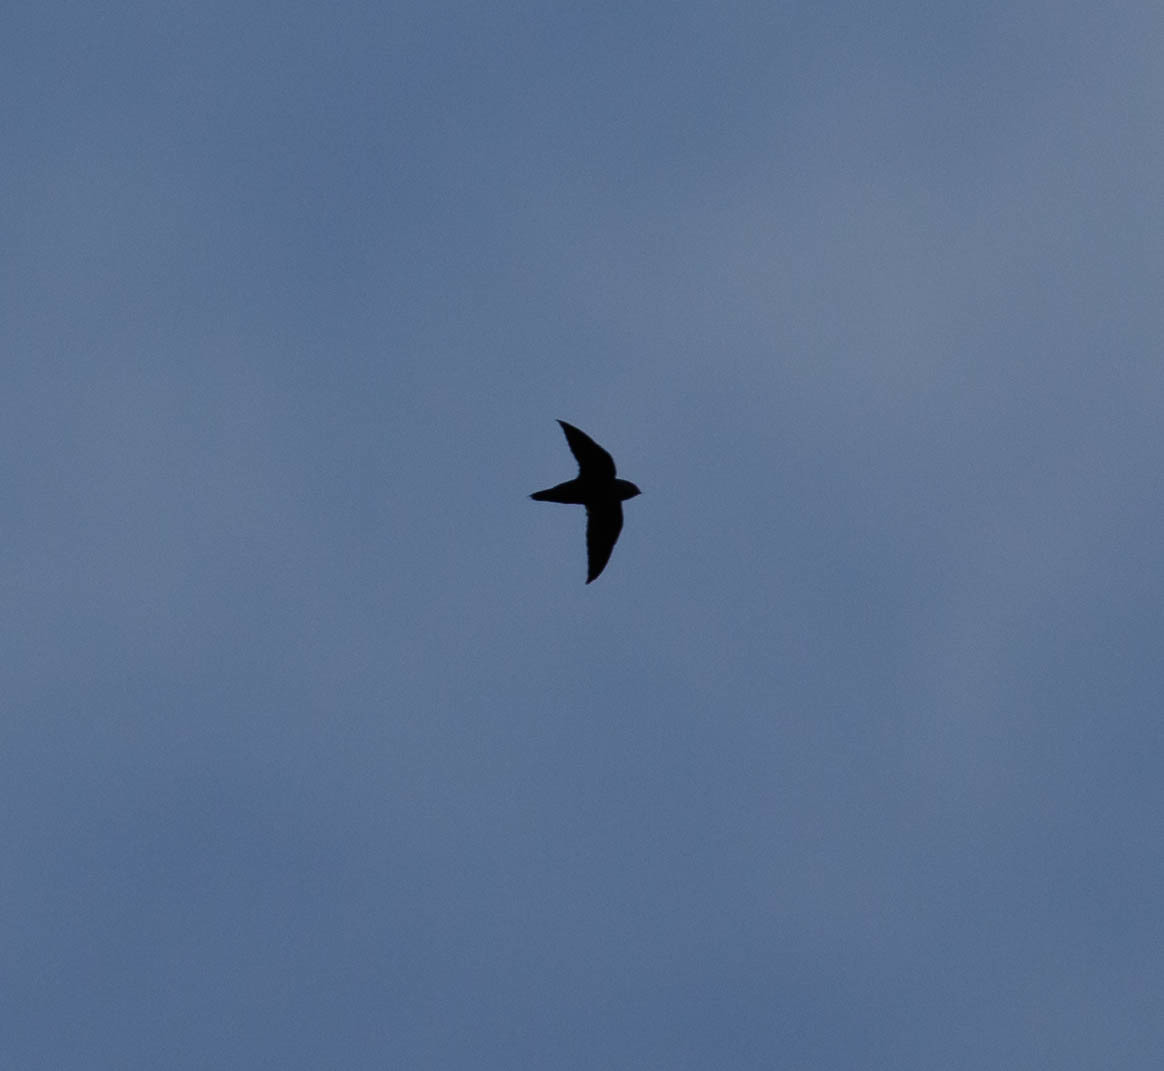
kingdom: Animalia
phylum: Chordata
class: Aves
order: Apodiformes
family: Apodidae
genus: Chaetura
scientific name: Chaetura pelagica
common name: Chimney swift
